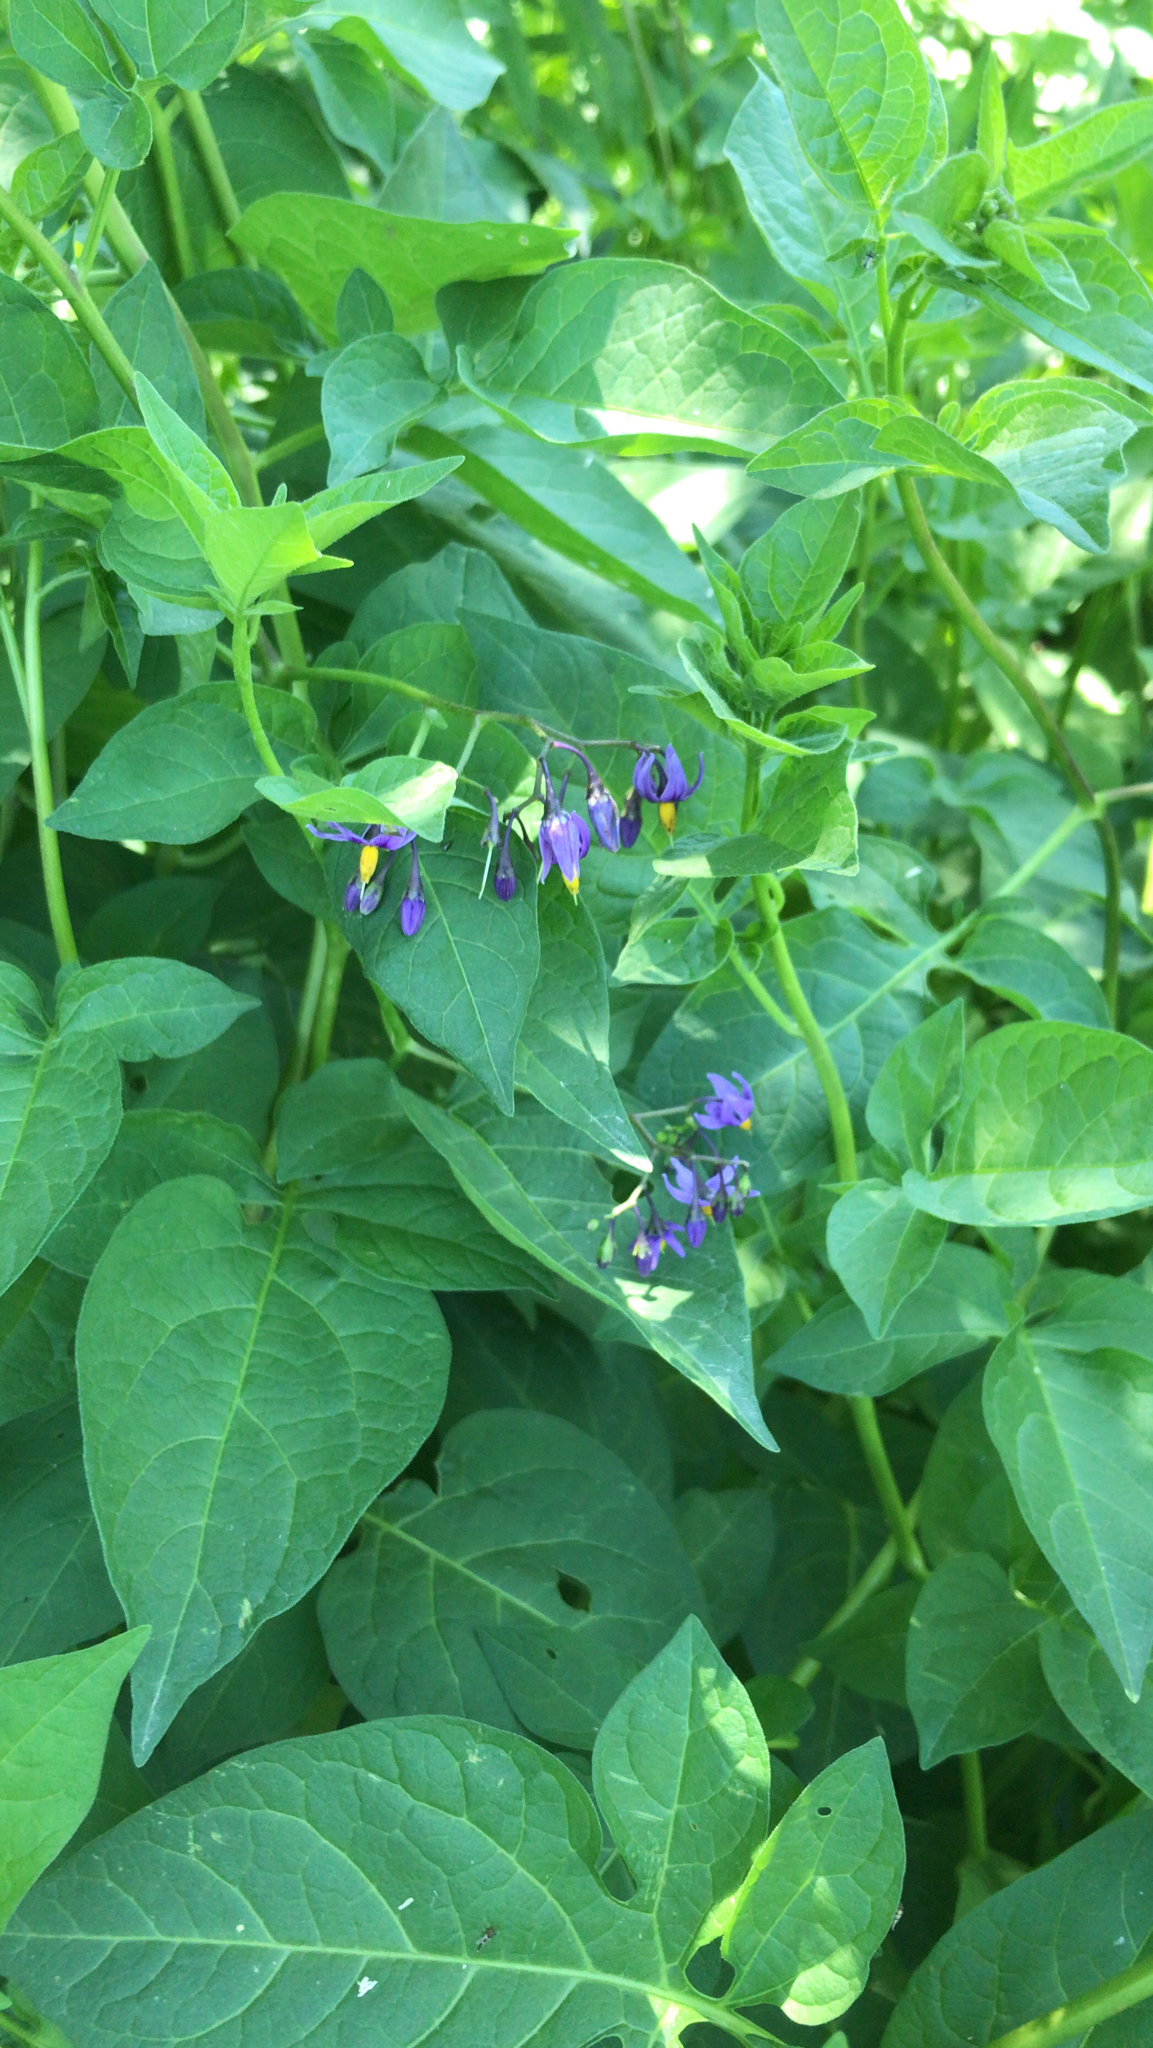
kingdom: Plantae
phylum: Tracheophyta
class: Magnoliopsida
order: Solanales
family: Solanaceae
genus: Solanum
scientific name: Solanum dulcamara
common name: Climbing nightshade
